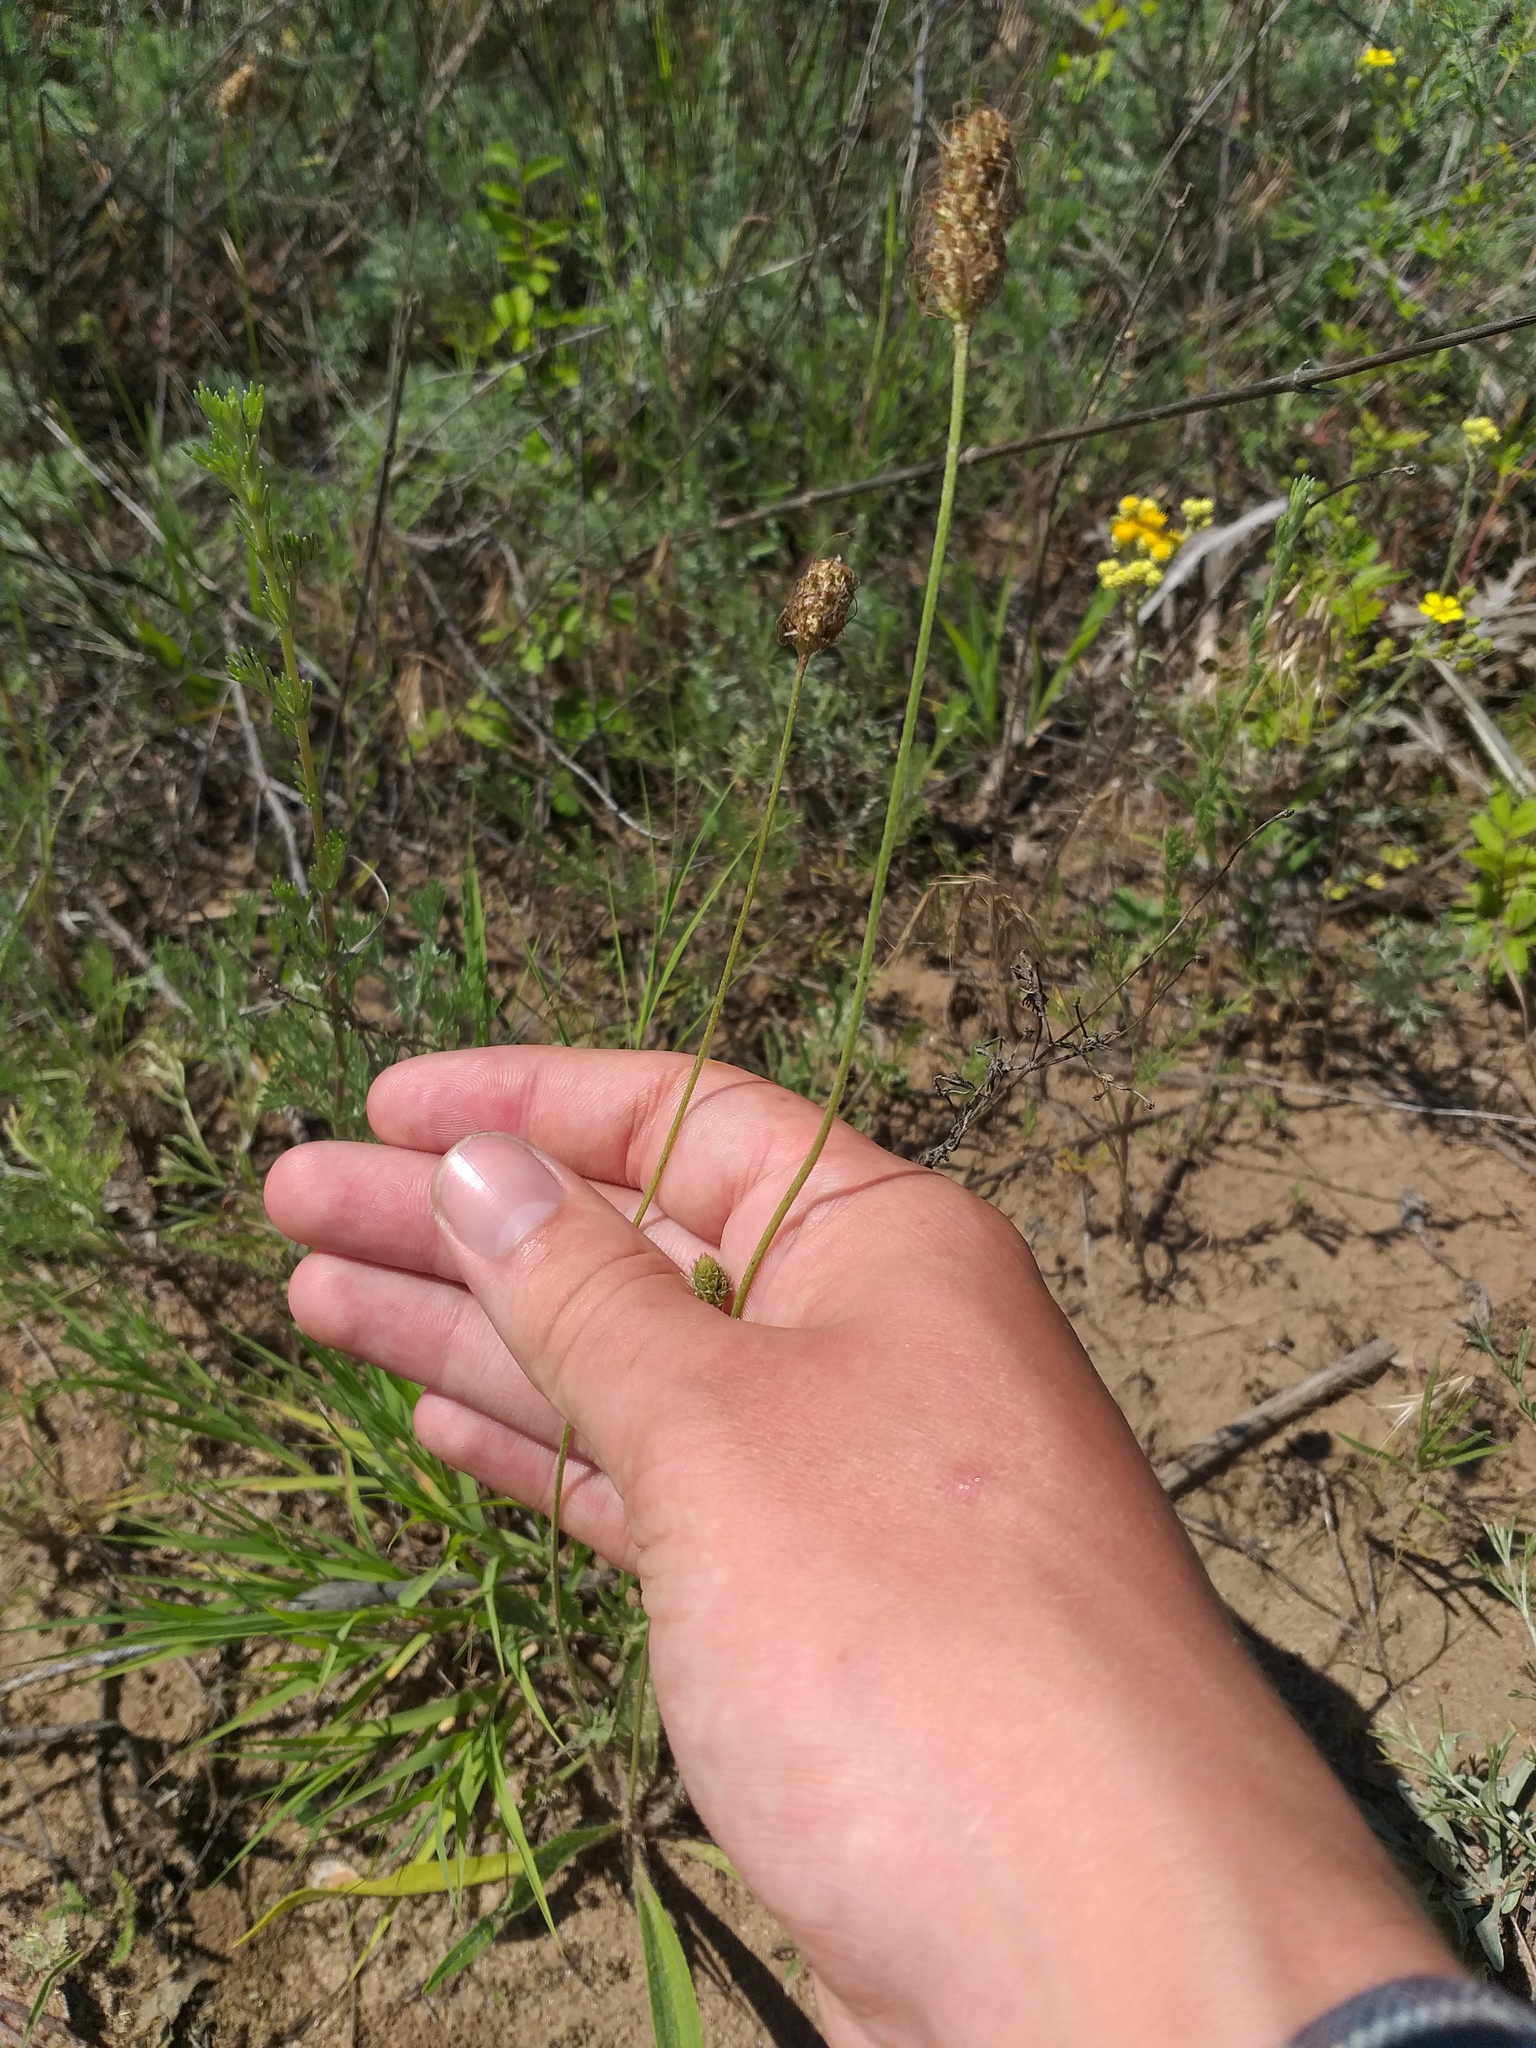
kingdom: Plantae
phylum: Tracheophyta
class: Magnoliopsida
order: Lamiales
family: Plantaginaceae
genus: Plantago
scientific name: Plantago lanceolata
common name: Ribwort plantain
